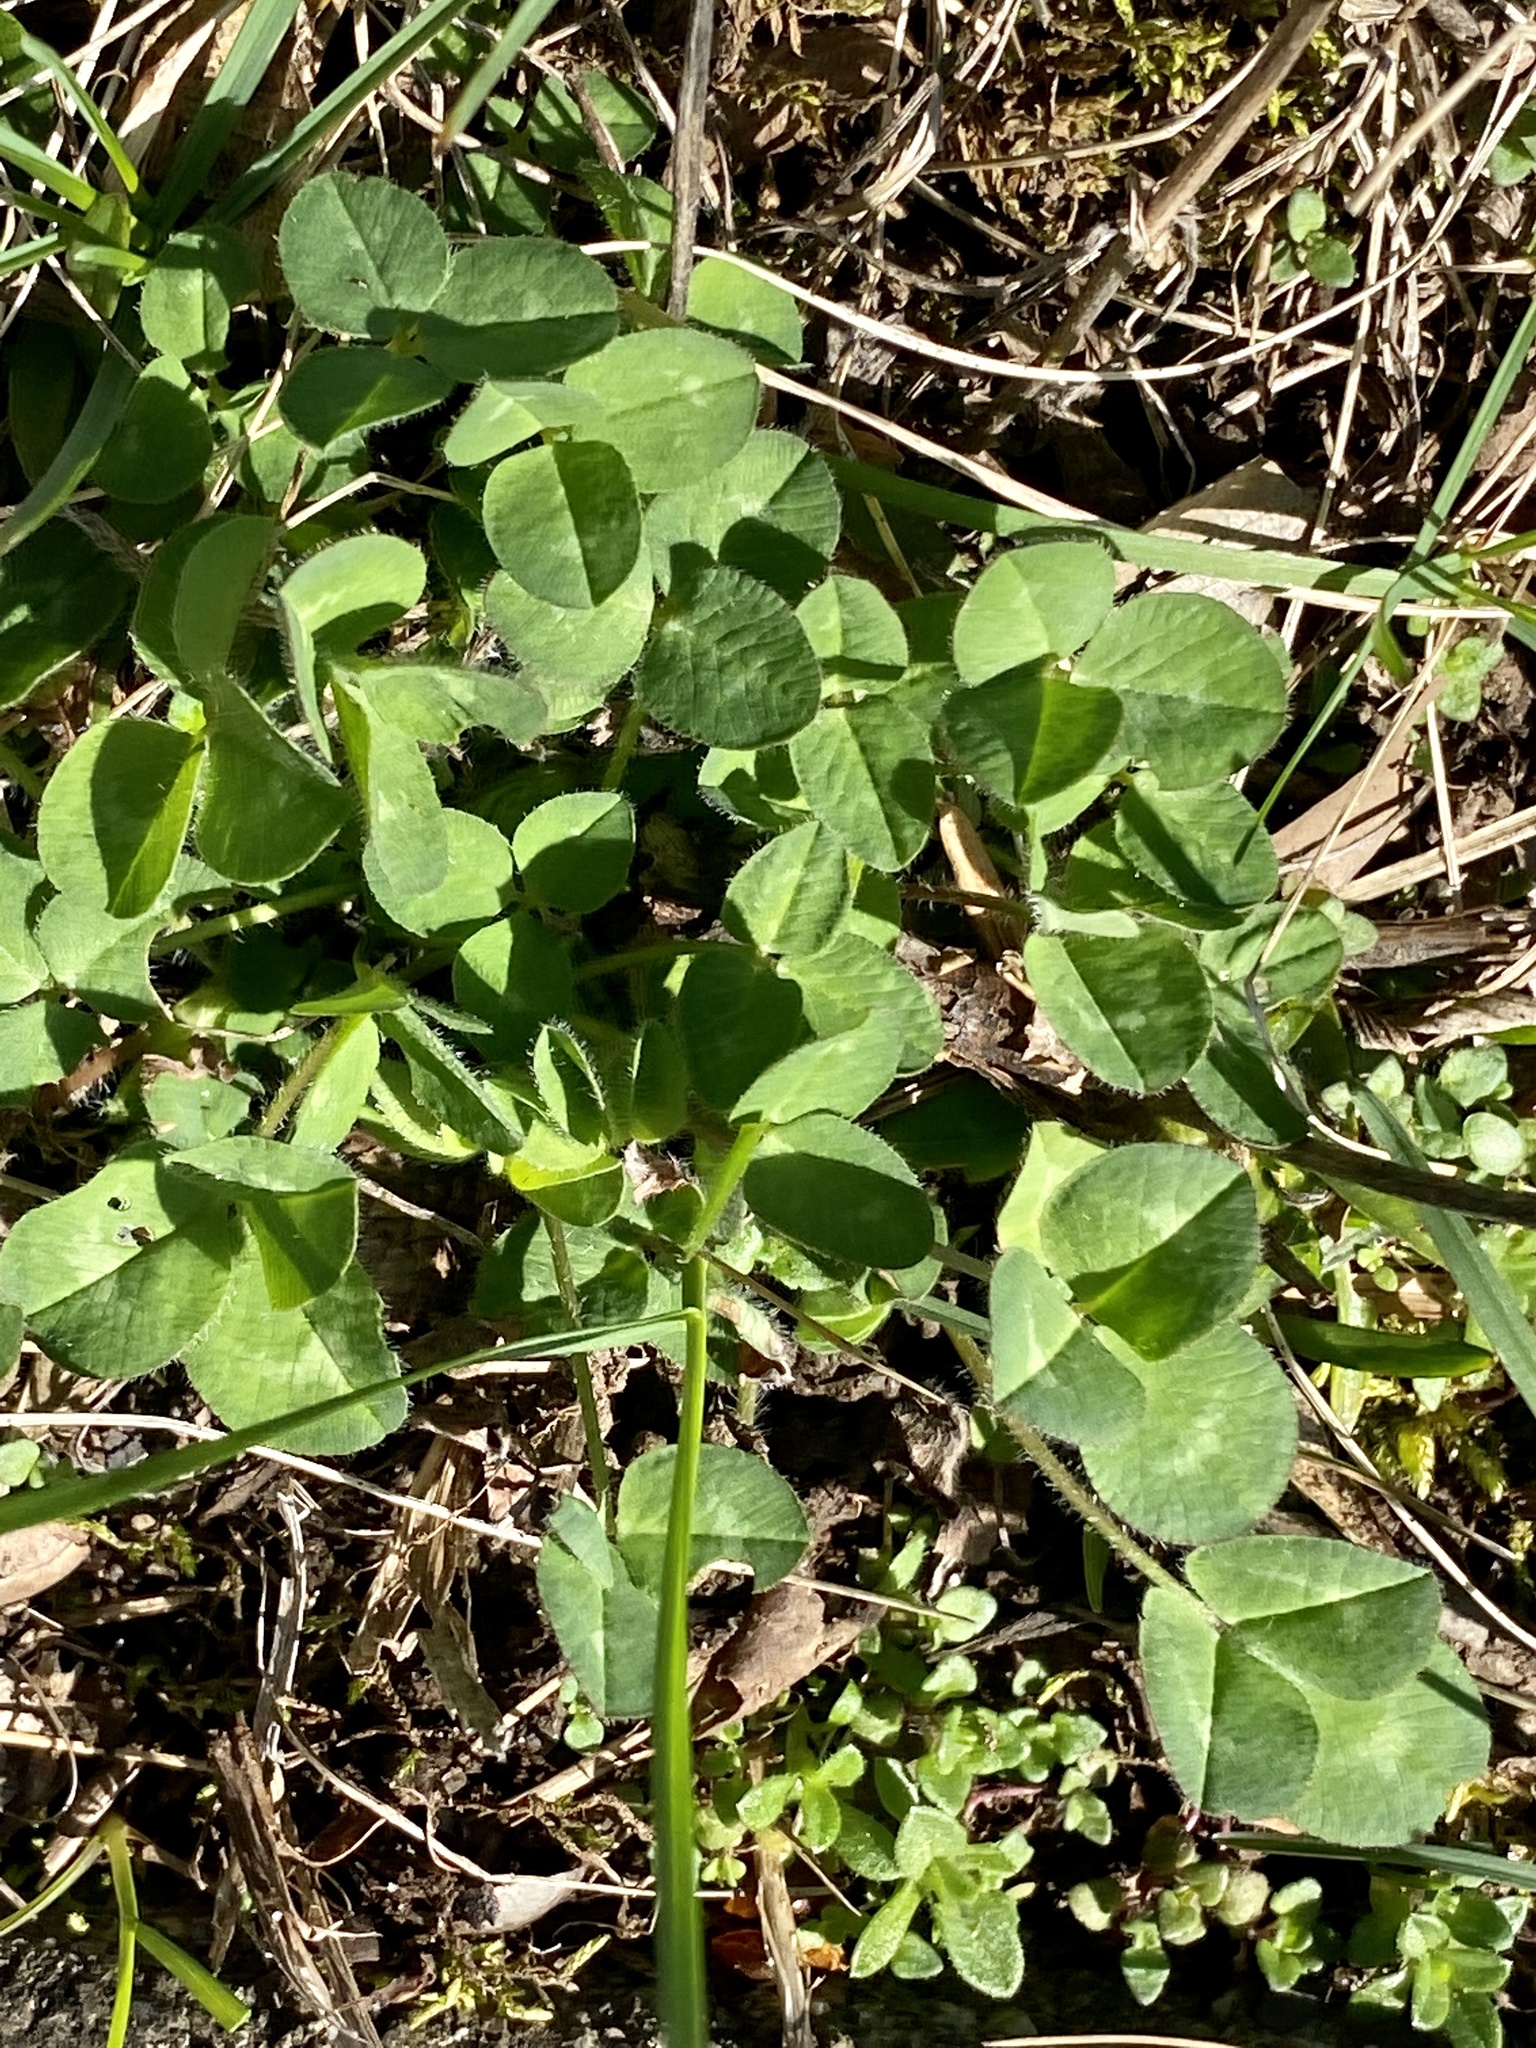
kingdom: Plantae
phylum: Tracheophyta
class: Magnoliopsida
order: Fabales
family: Fabaceae
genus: Trifolium
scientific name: Trifolium pratense
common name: Red clover
